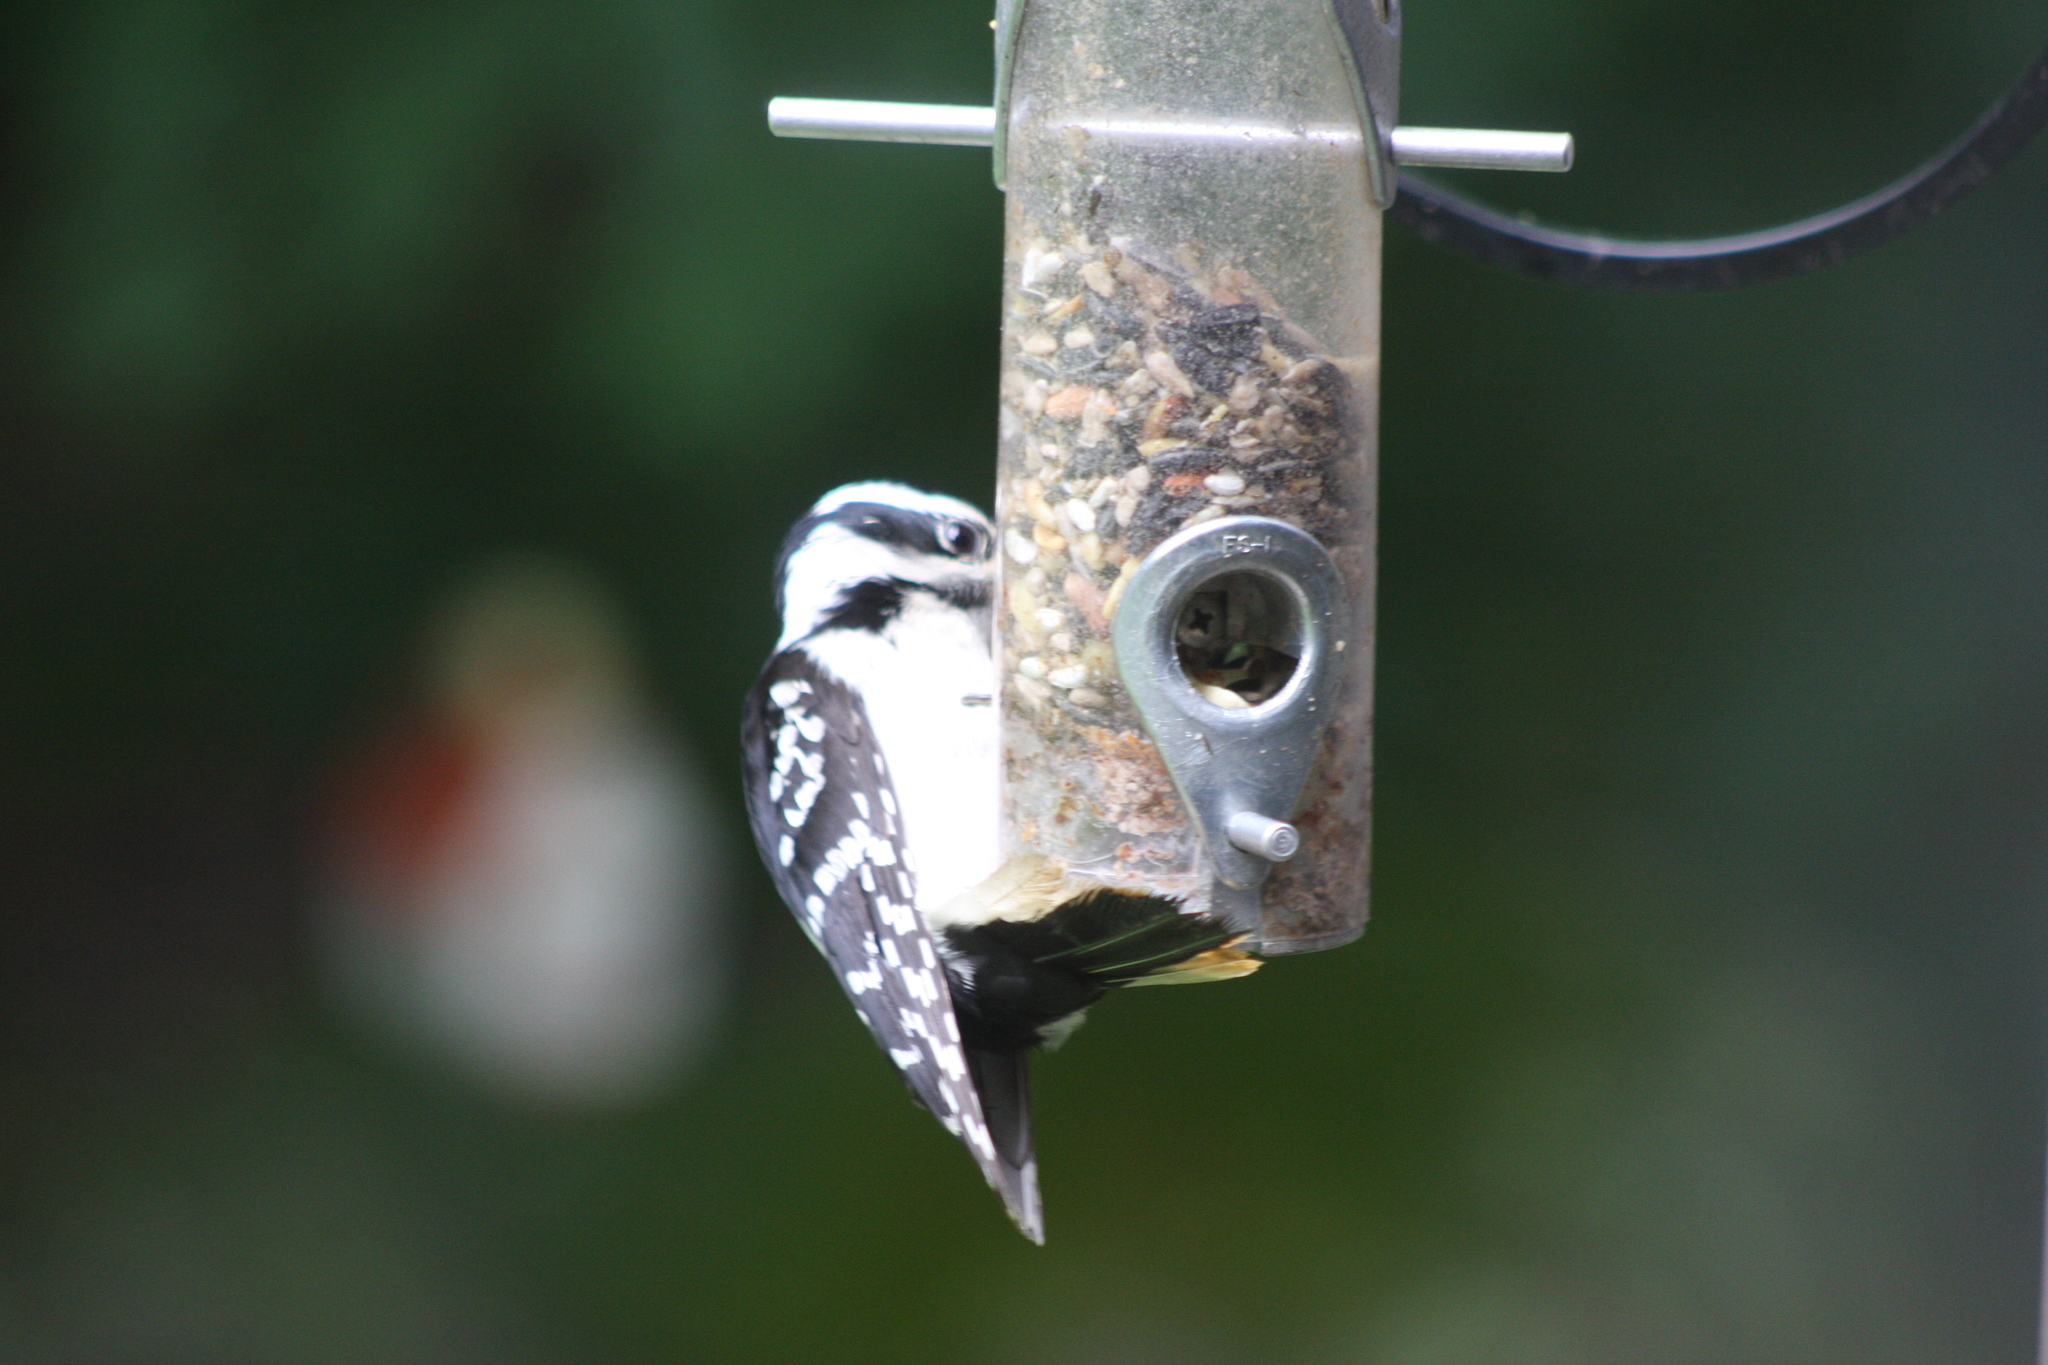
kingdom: Animalia
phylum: Chordata
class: Aves
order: Piciformes
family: Picidae
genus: Leuconotopicus
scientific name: Leuconotopicus villosus
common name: Hairy woodpecker
